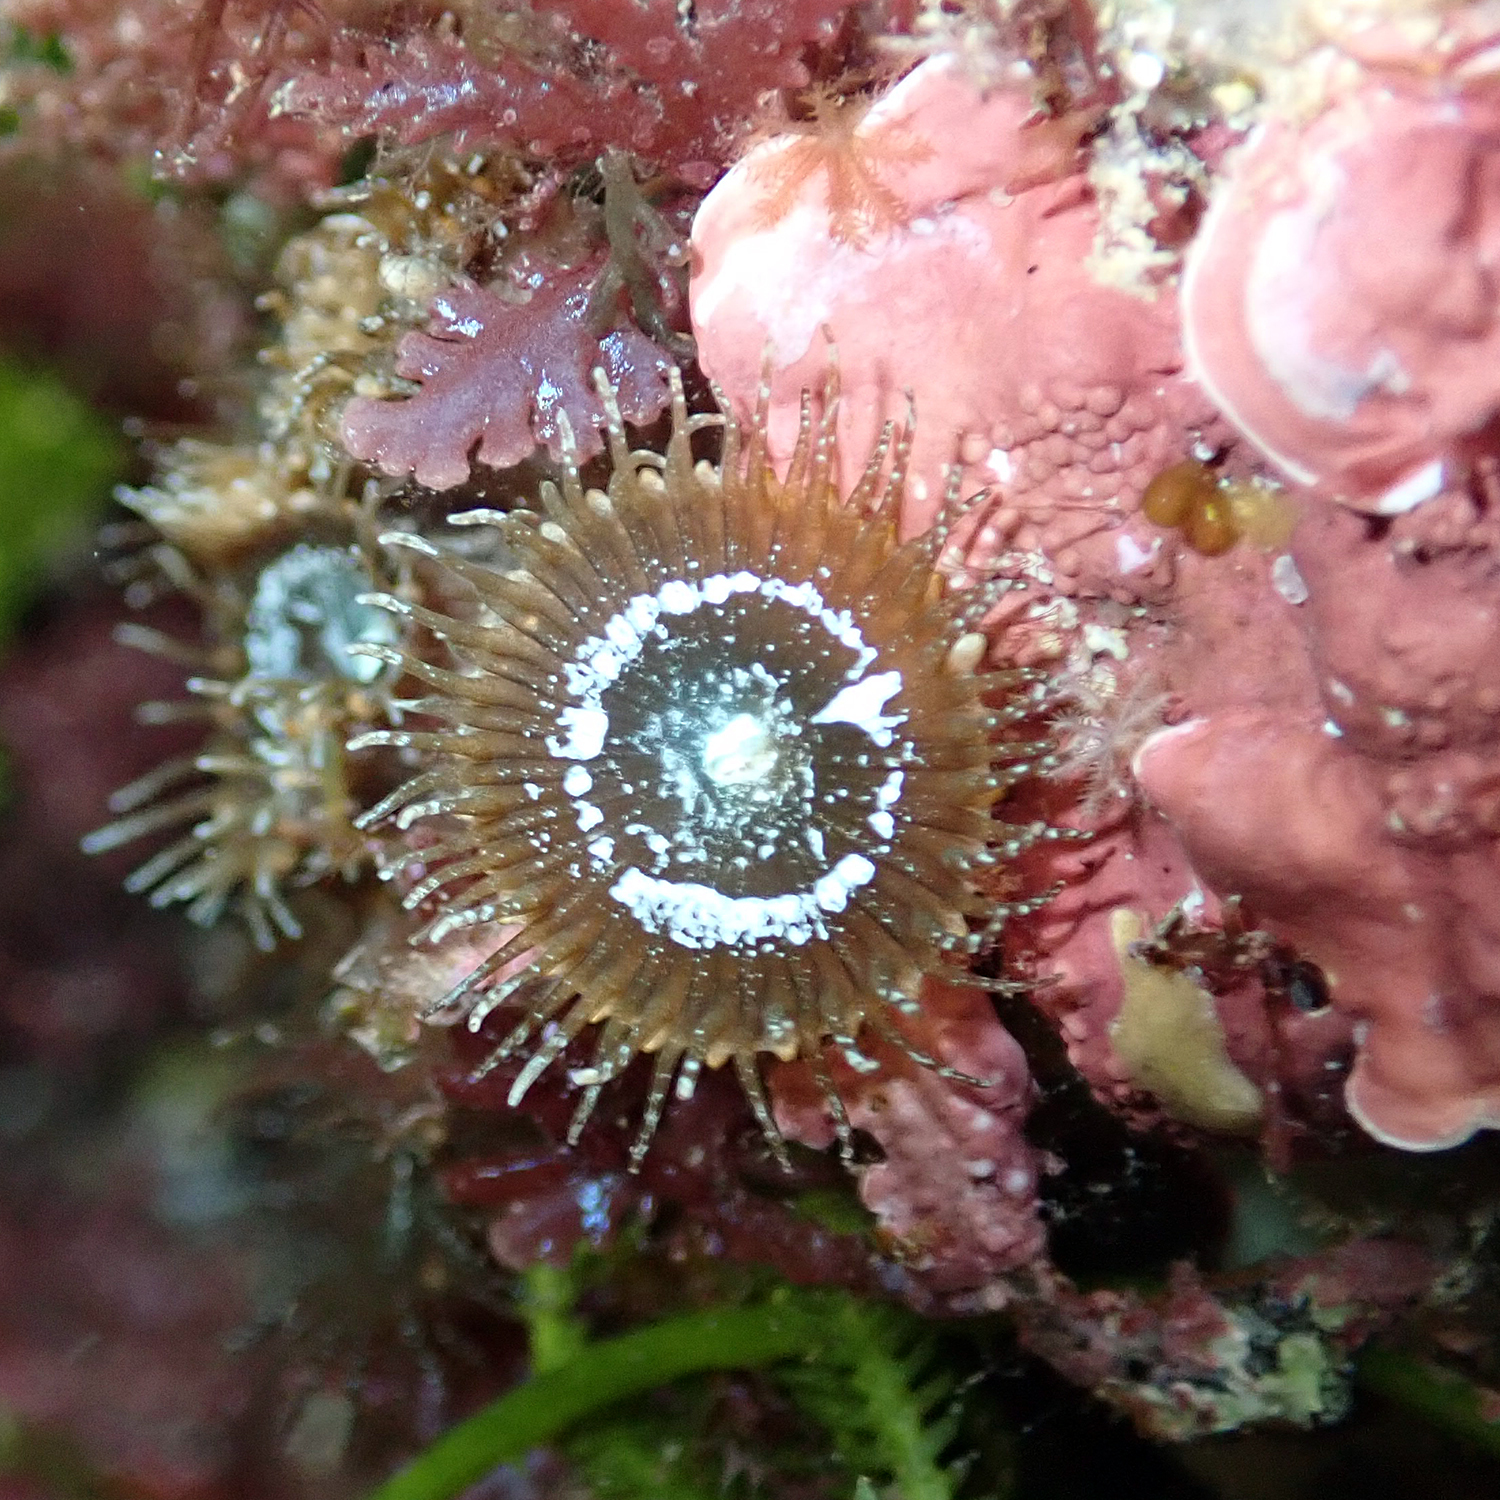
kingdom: Animalia
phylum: Cnidaria
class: Anthozoa
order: Zoantharia
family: Sphenopidae
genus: Palythoa
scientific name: Palythoa mutuki
